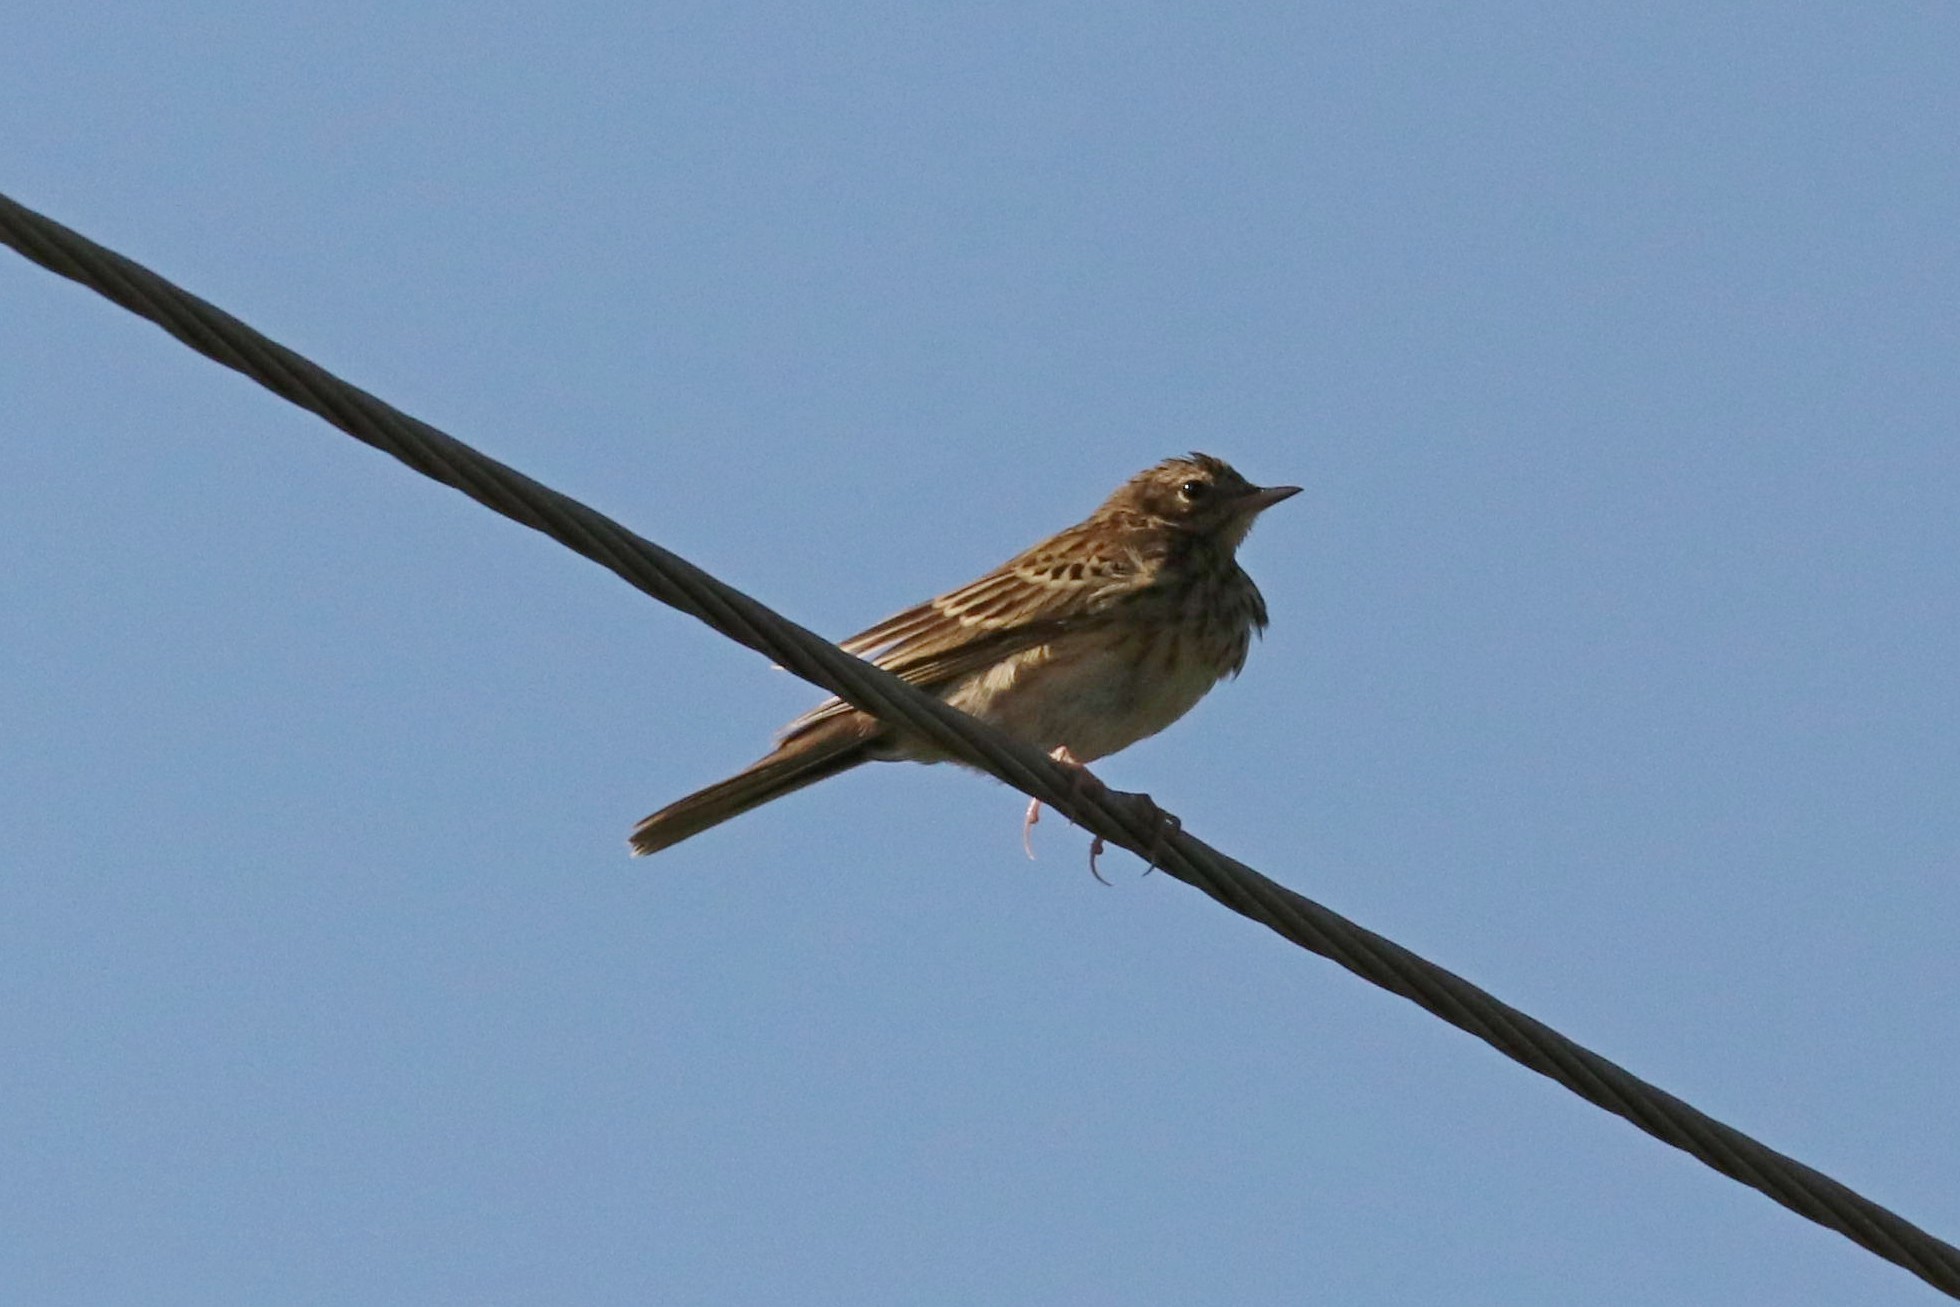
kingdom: Animalia
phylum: Chordata
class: Aves
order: Passeriformes
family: Motacillidae
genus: Anthus
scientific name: Anthus trivialis
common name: Tree pipit
